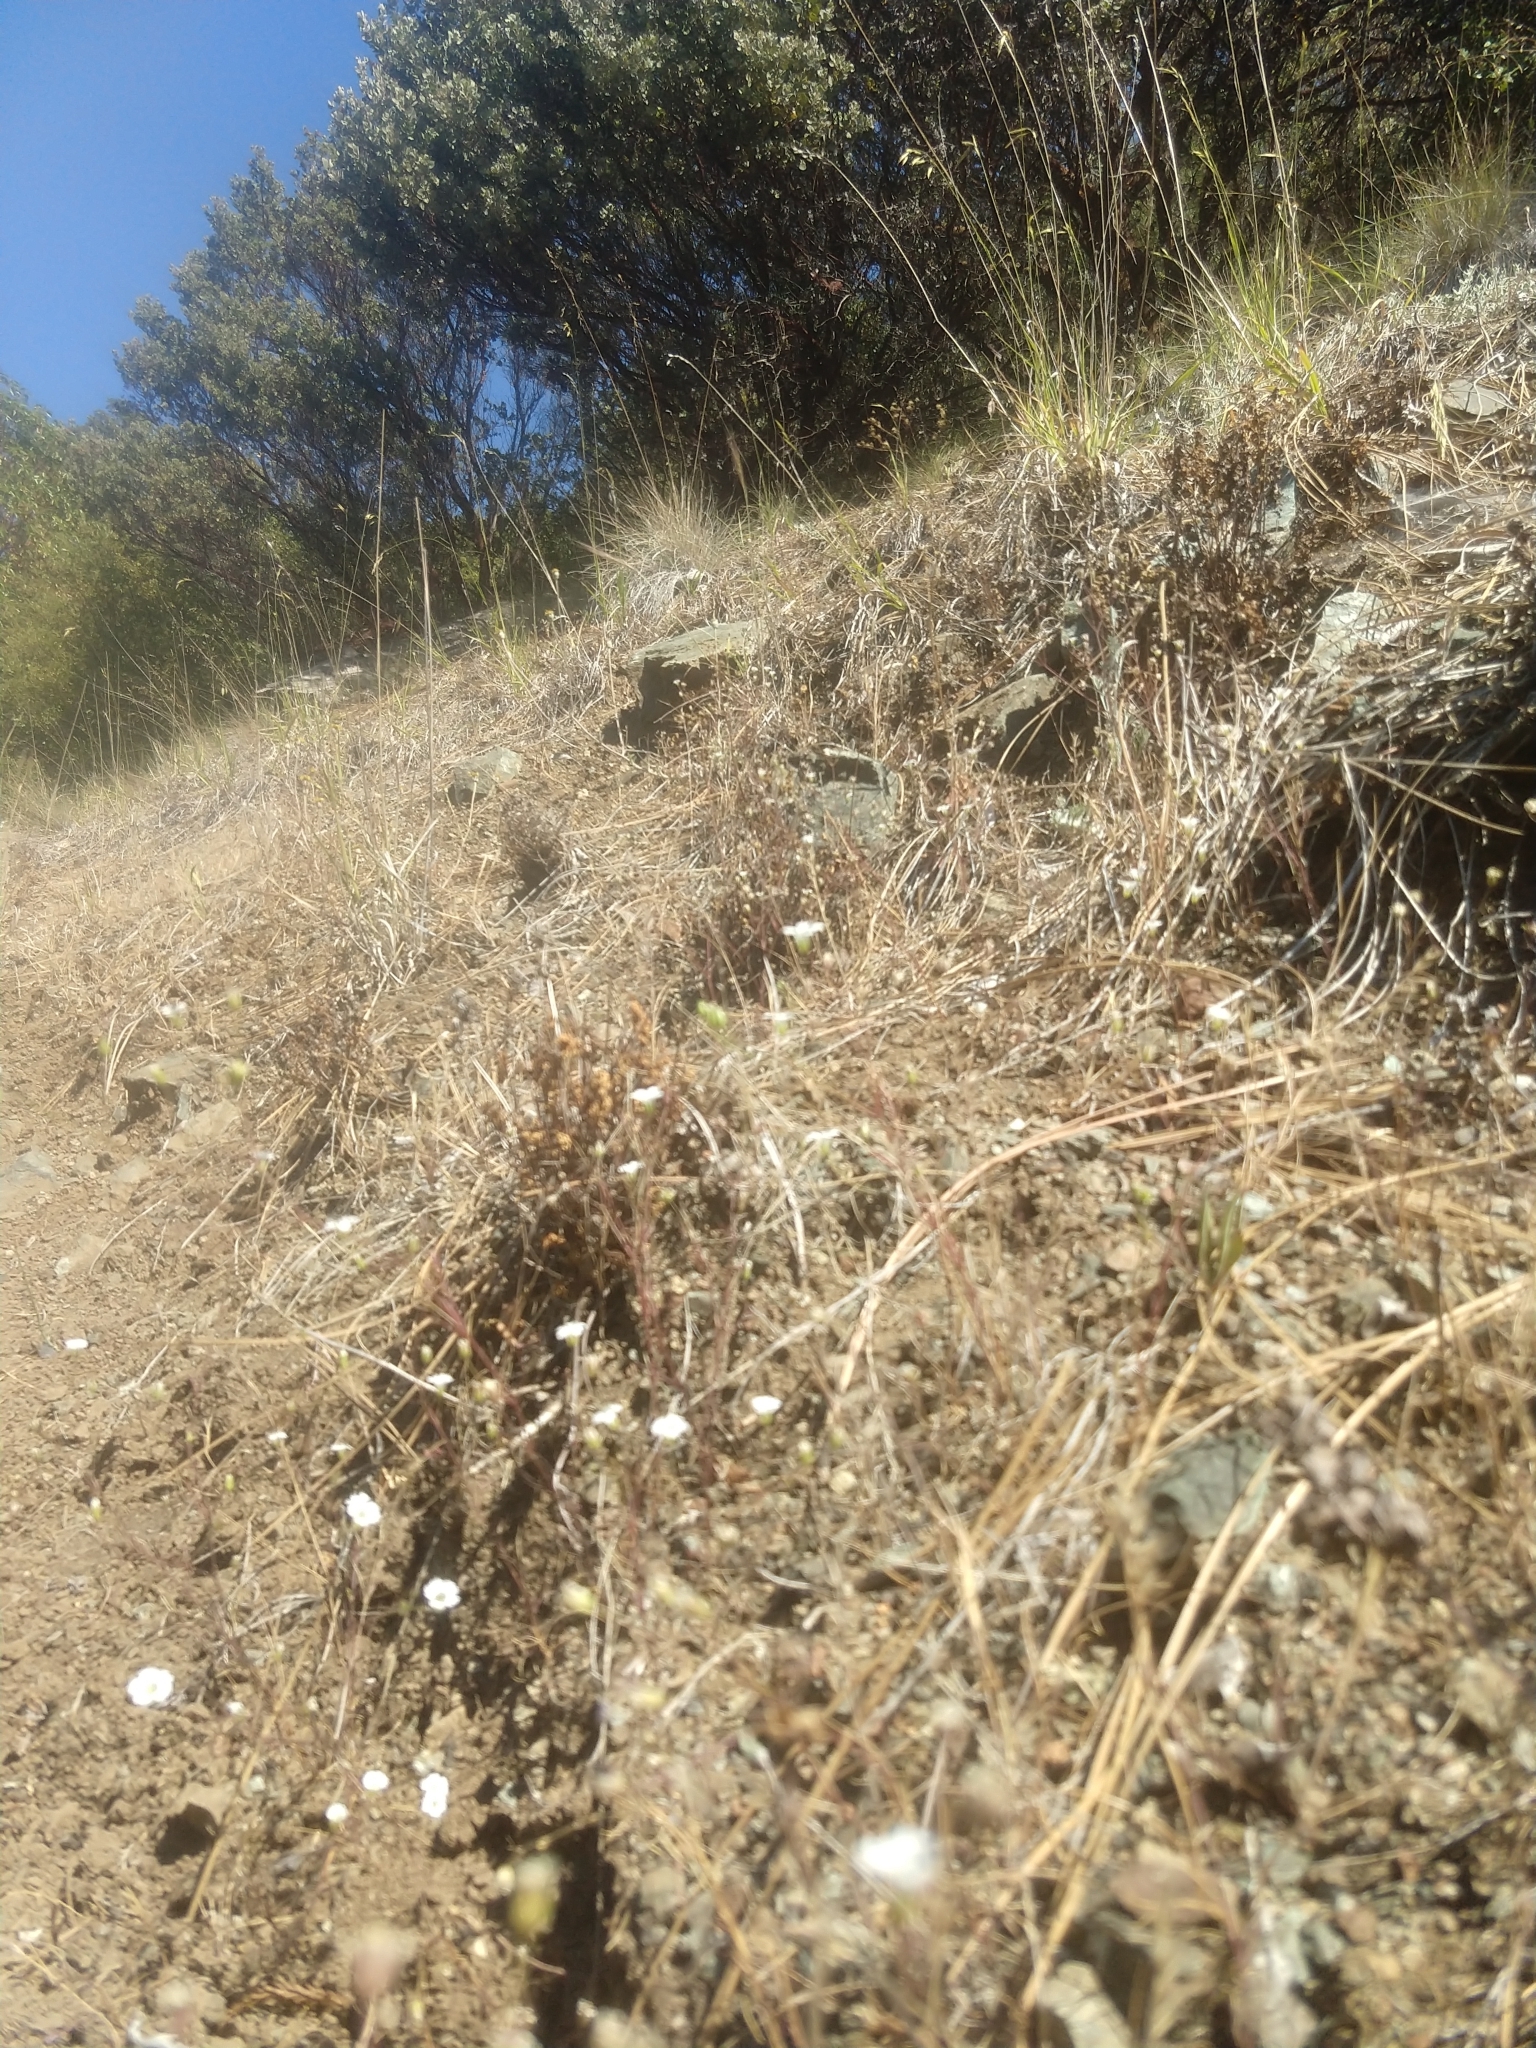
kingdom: Plantae
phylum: Tracheophyta
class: Magnoliopsida
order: Caryophyllales
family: Caryophyllaceae
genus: Sabulina
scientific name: Sabulina douglasii
